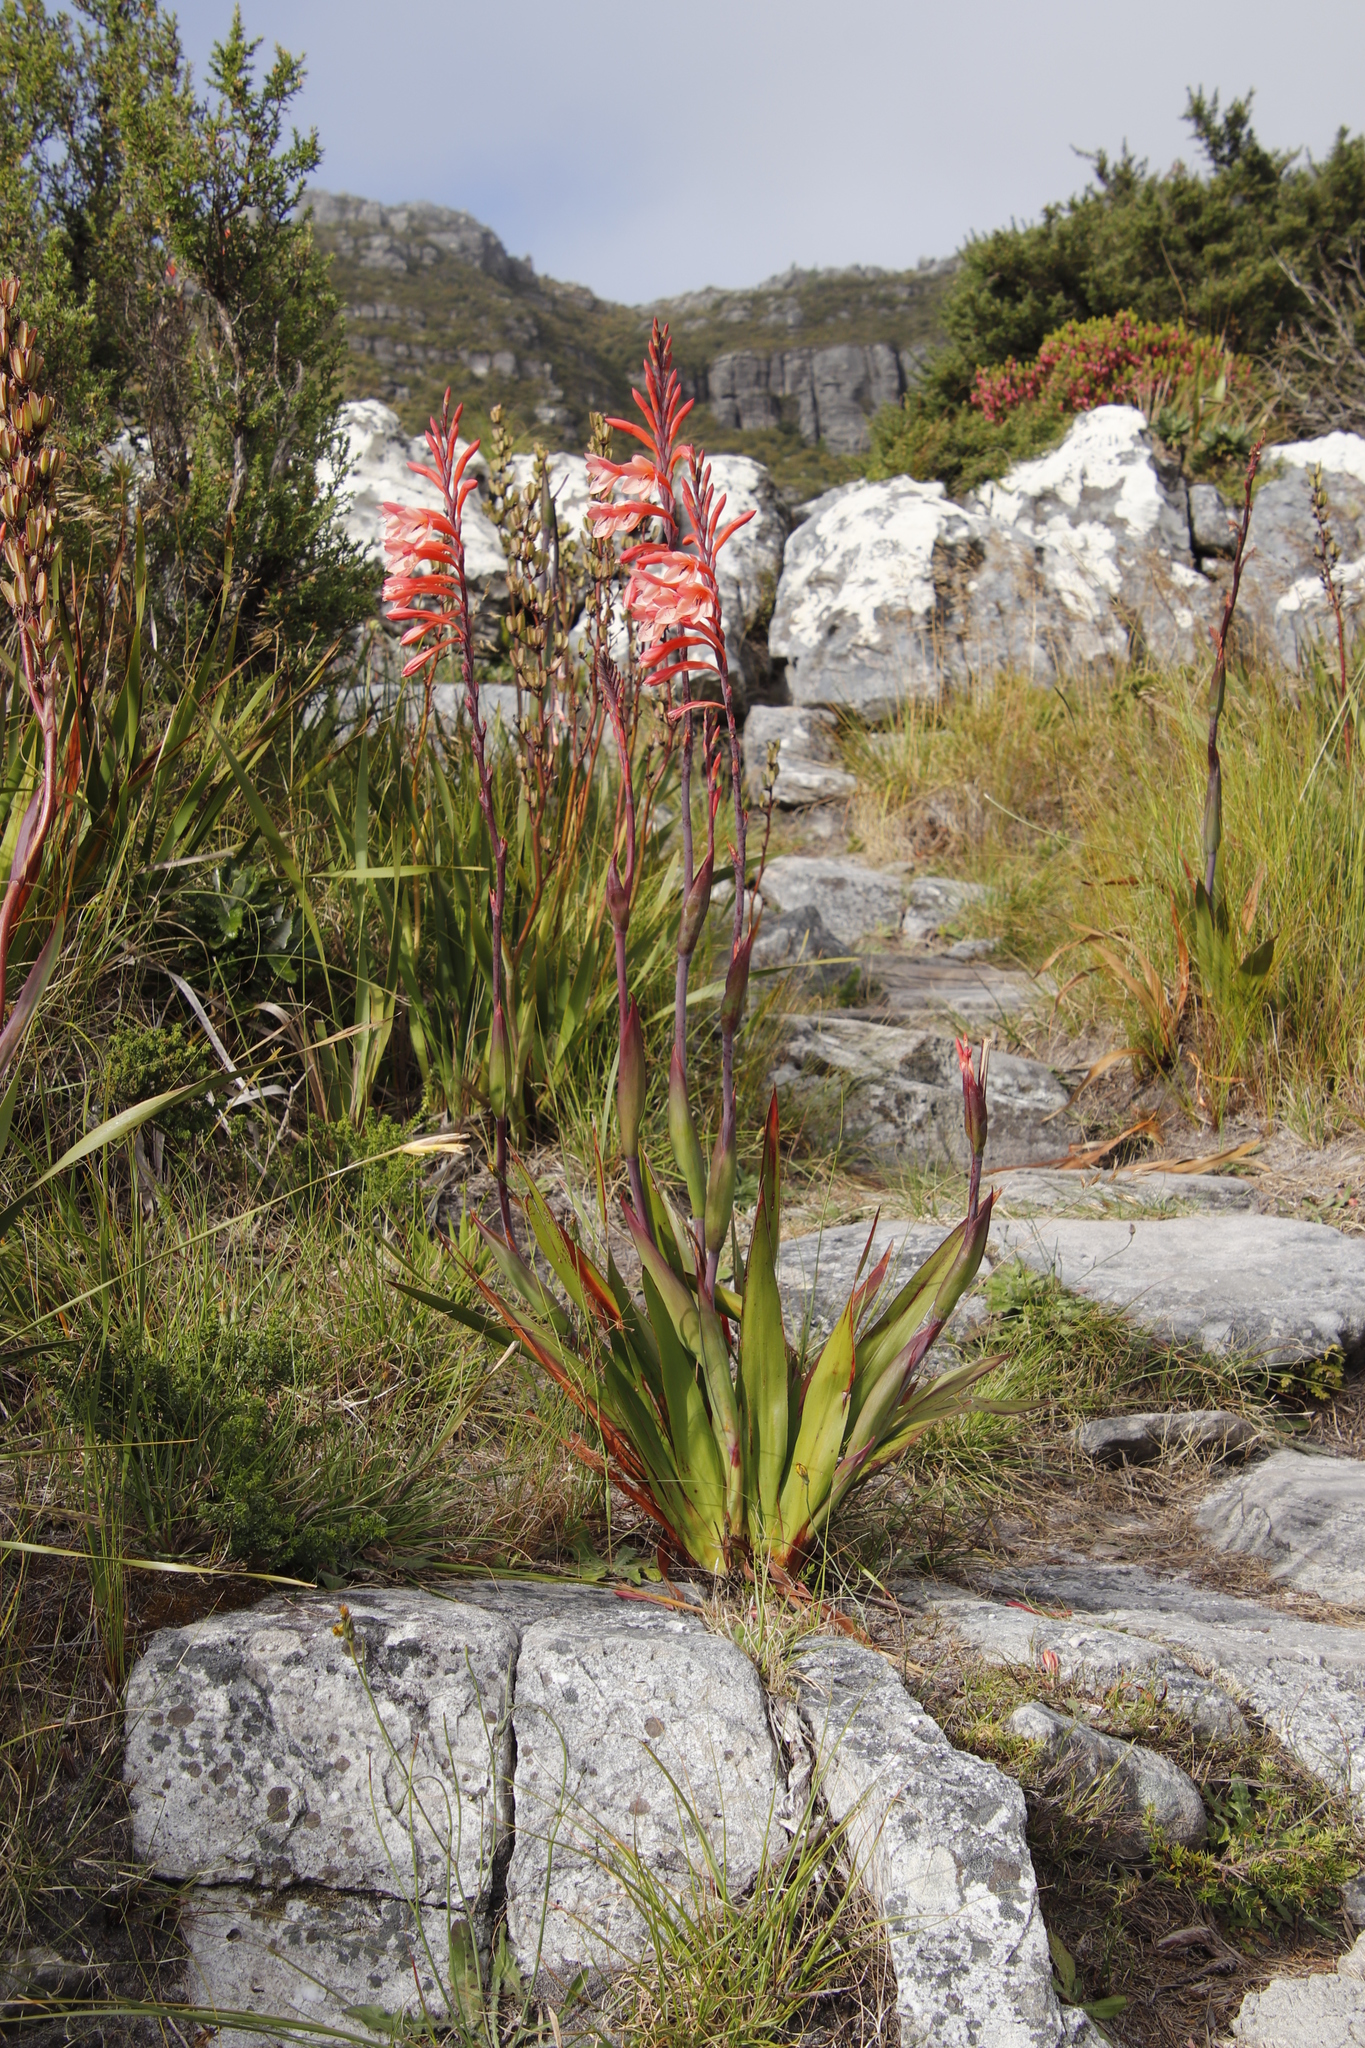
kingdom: Plantae
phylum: Tracheophyta
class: Liliopsida
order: Asparagales
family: Iridaceae
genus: Watsonia
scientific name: Watsonia tabularis
